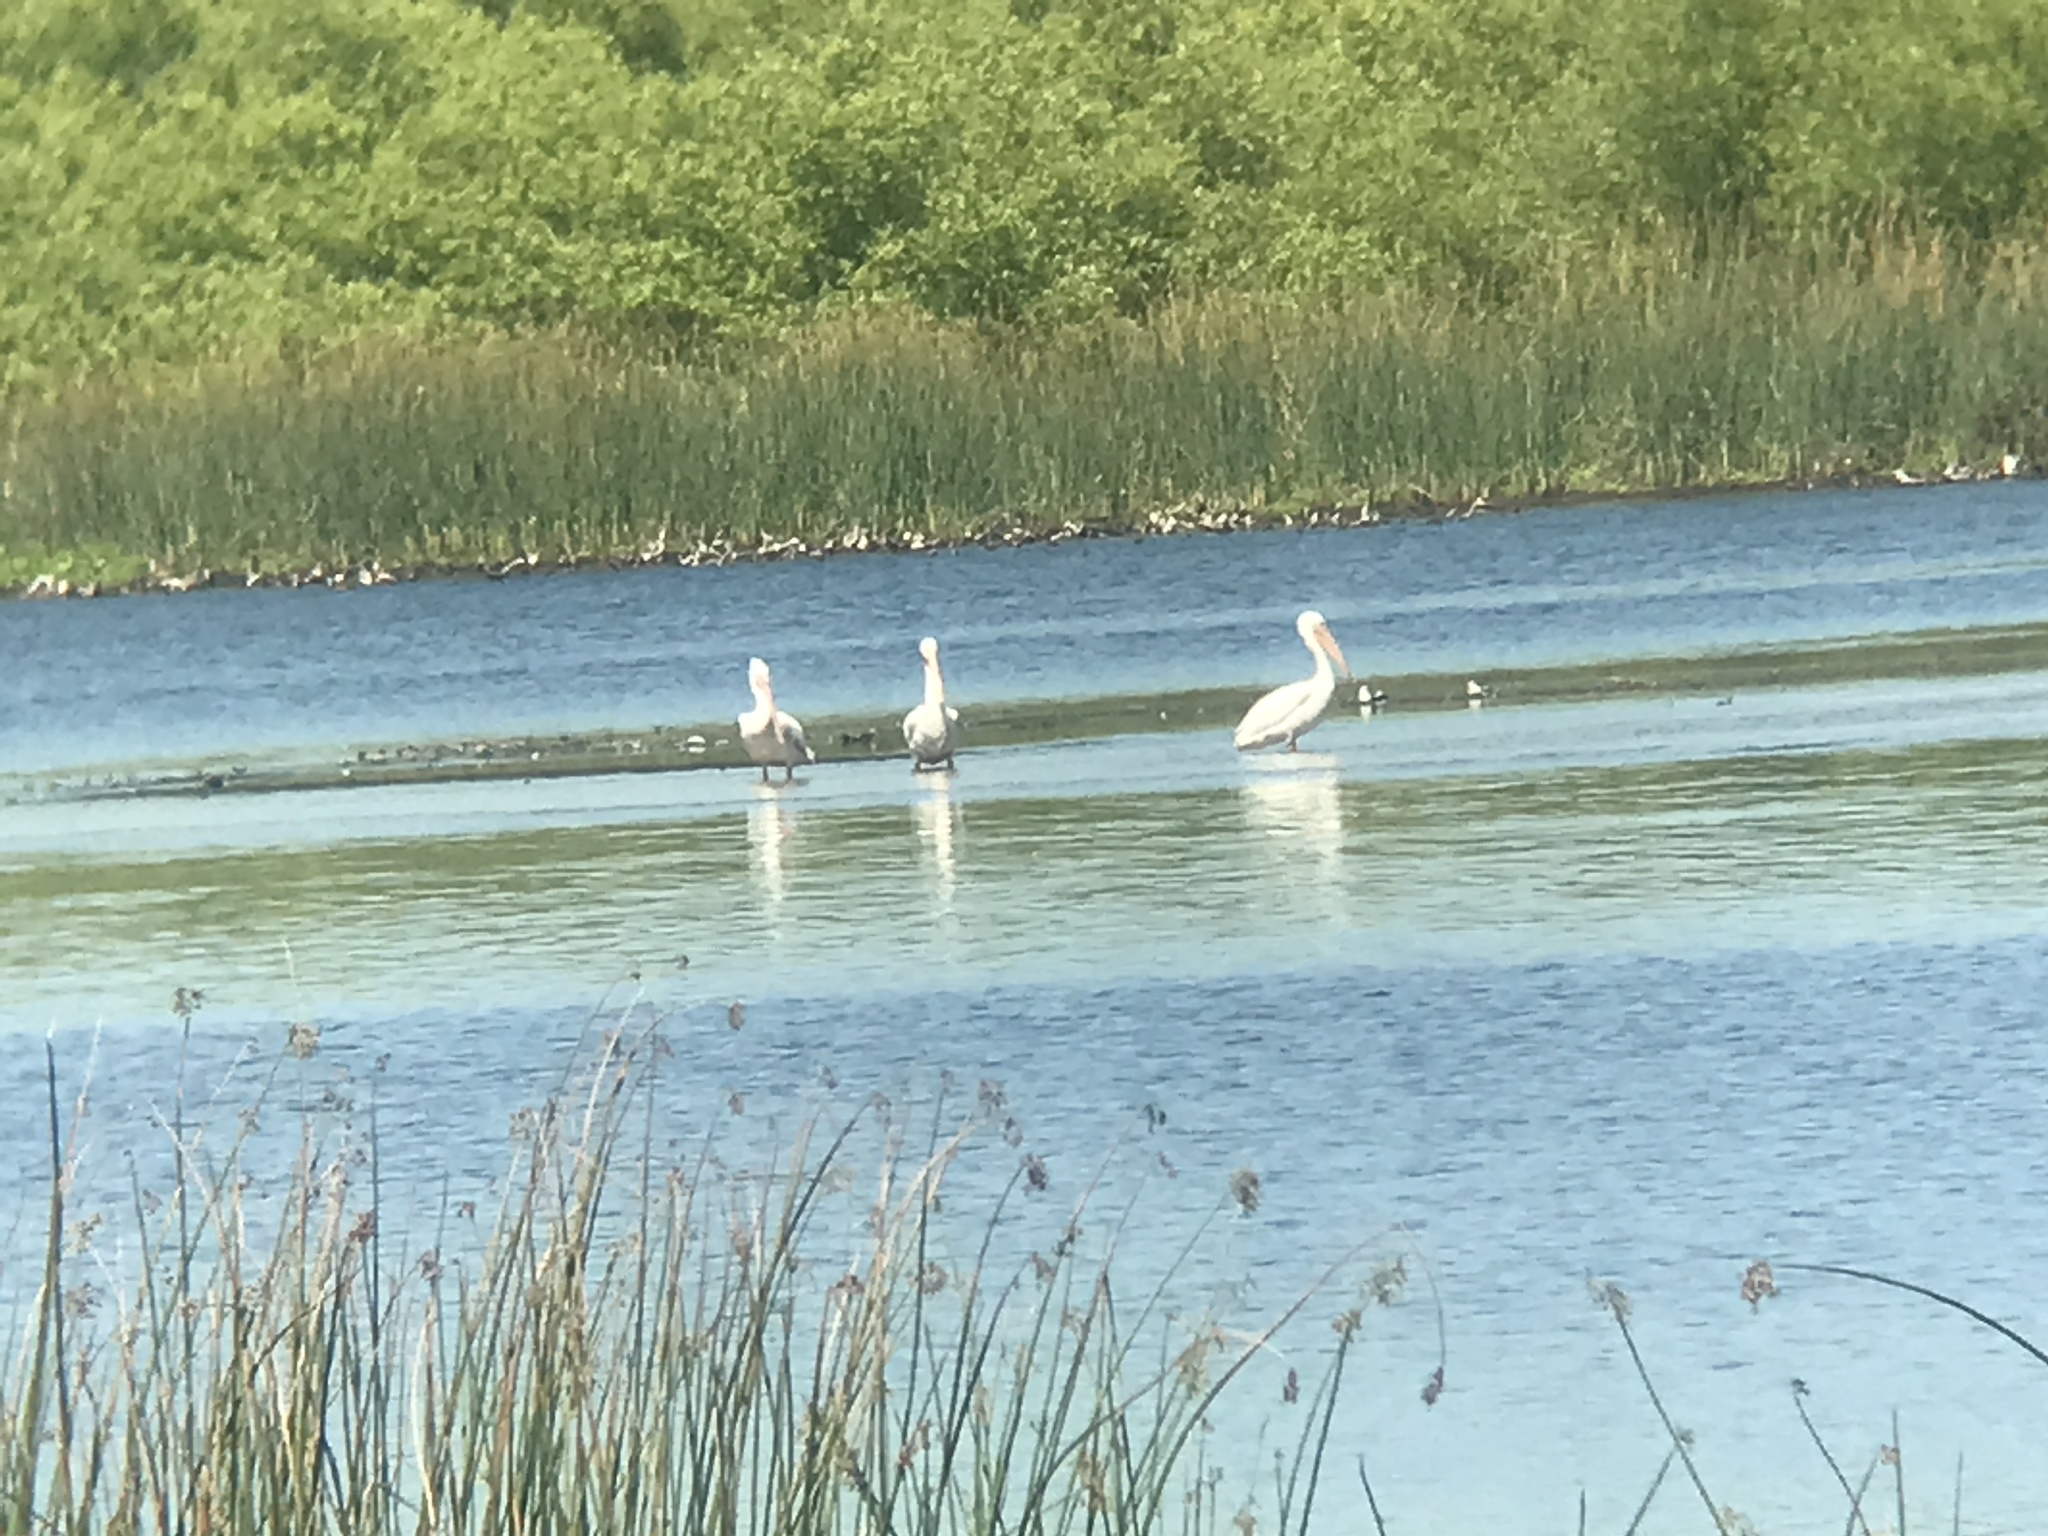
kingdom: Animalia
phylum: Chordata
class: Aves
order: Pelecaniformes
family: Pelecanidae
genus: Pelecanus
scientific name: Pelecanus erythrorhynchos
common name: American white pelican
